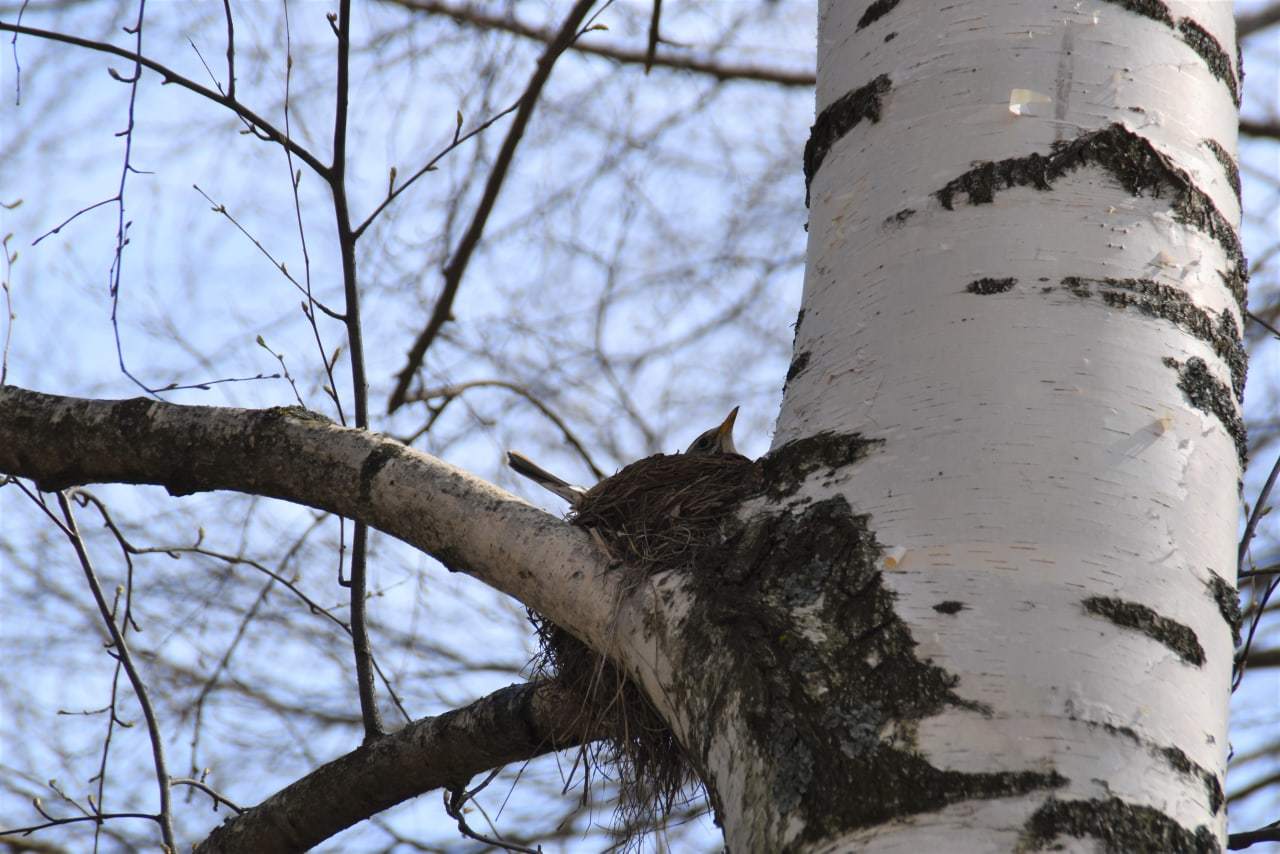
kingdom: Animalia
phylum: Chordata
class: Aves
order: Passeriformes
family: Turdidae
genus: Turdus
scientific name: Turdus pilaris
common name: Fieldfare
